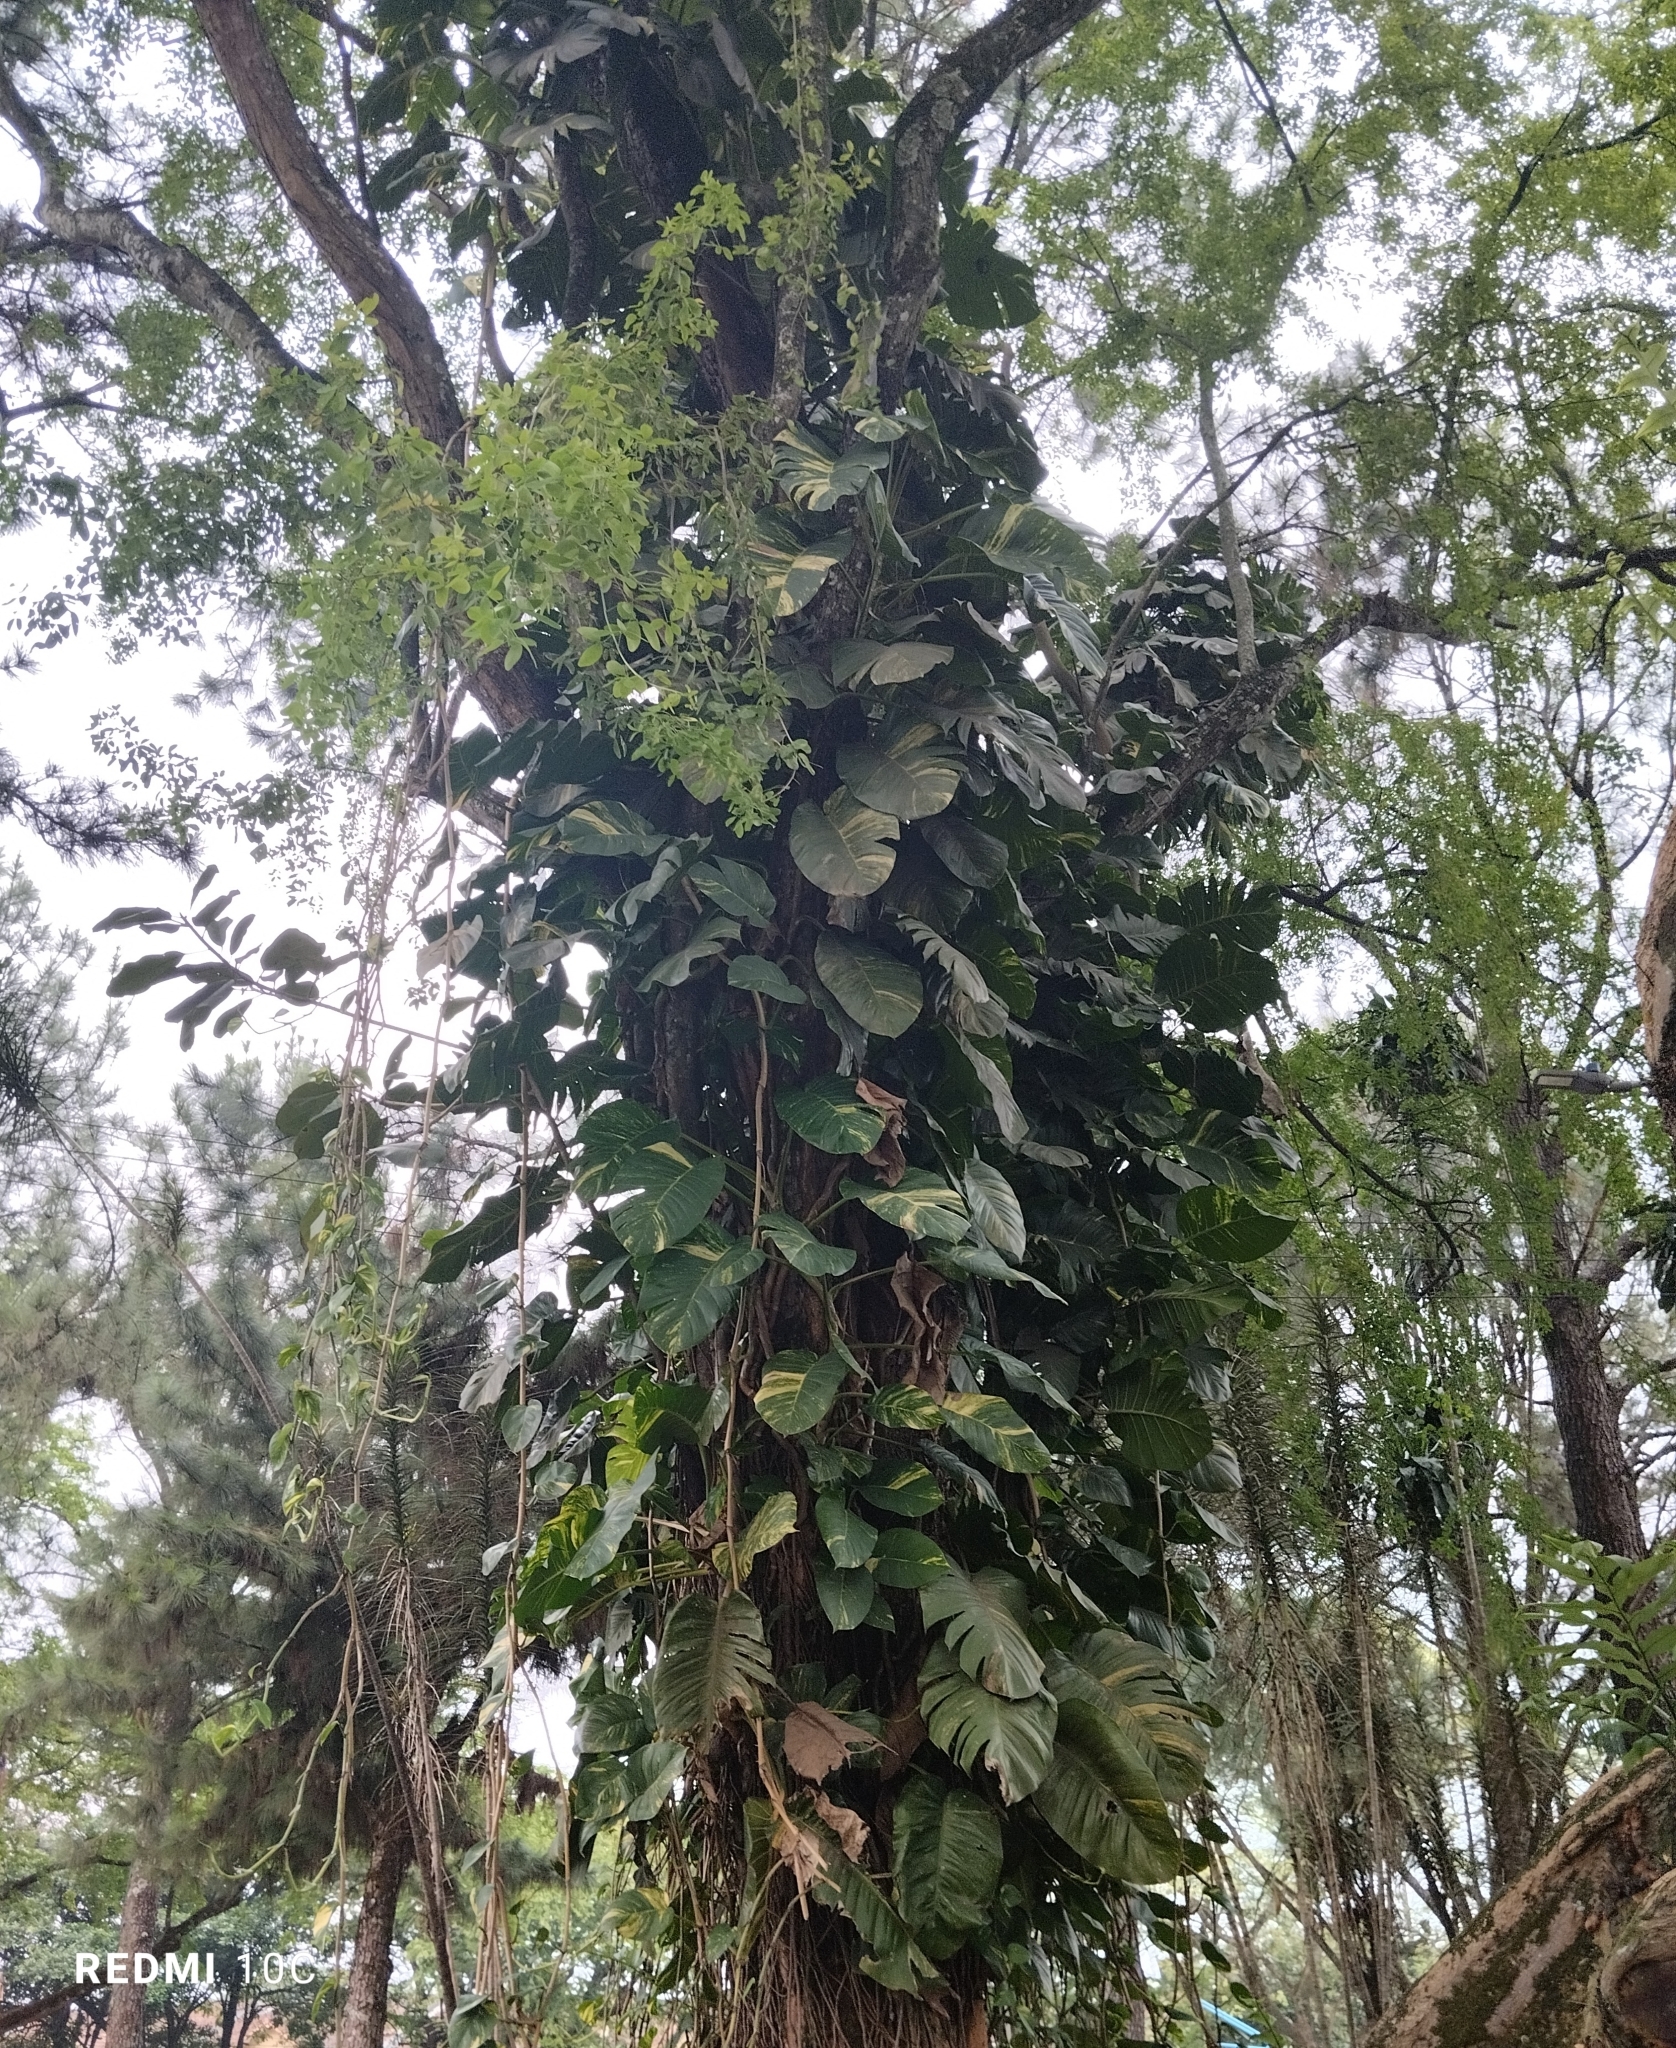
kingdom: Plantae
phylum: Tracheophyta
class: Liliopsida
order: Alismatales
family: Araceae
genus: Epipremnum
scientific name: Epipremnum aureum
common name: Golden hunter's-robe
